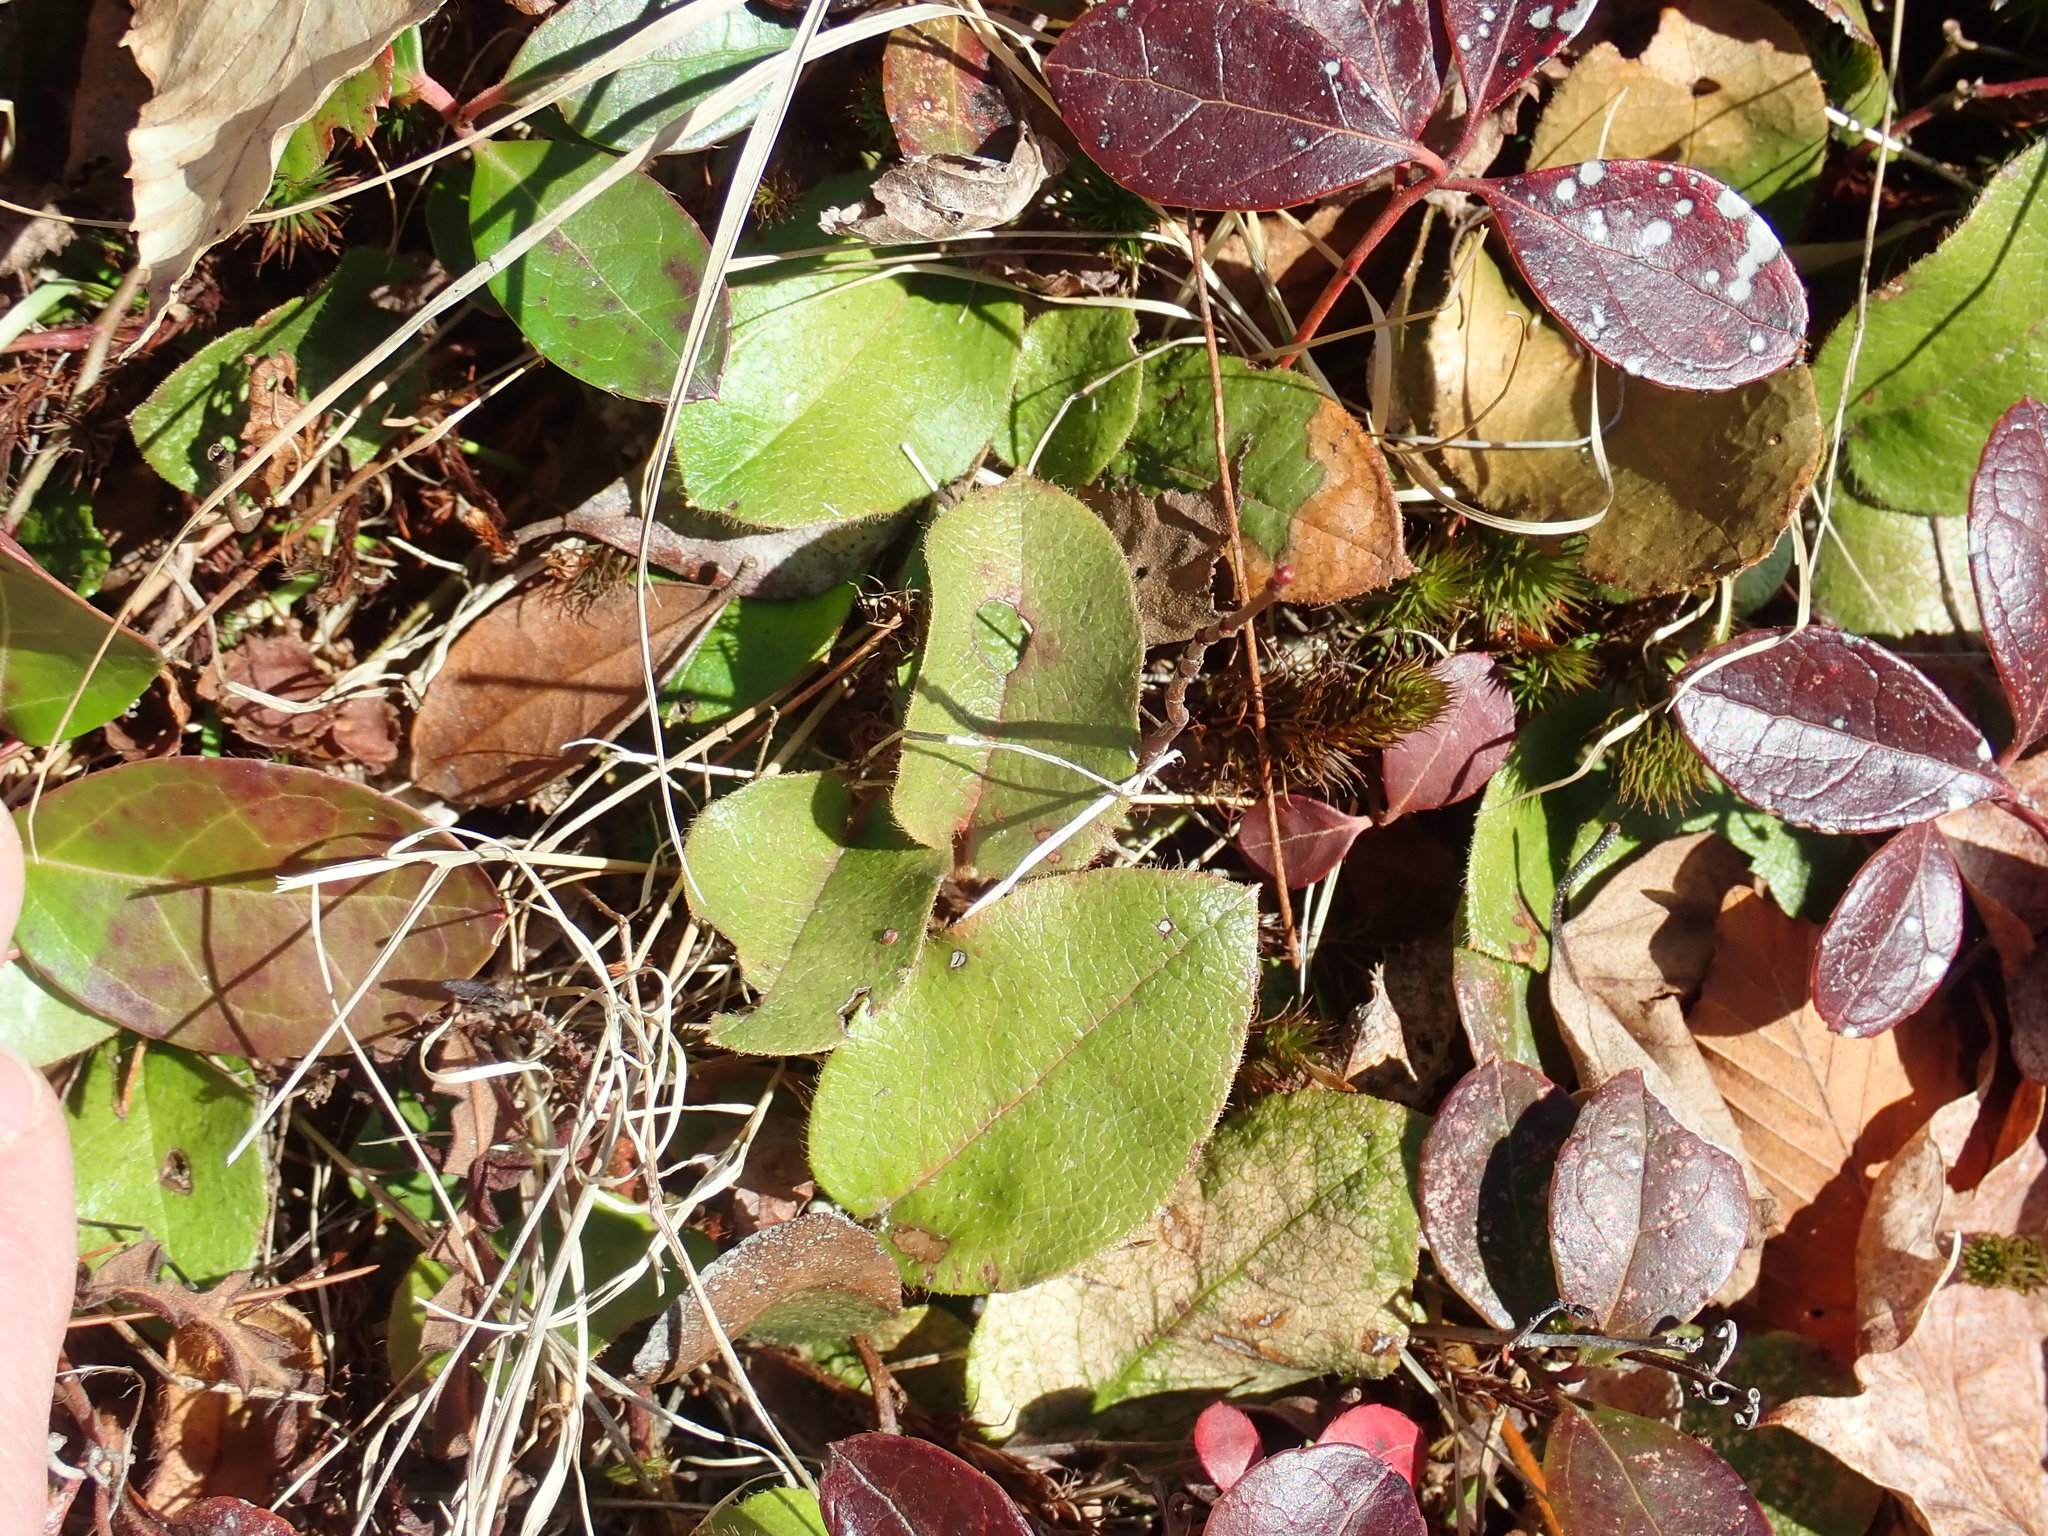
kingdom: Plantae
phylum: Tracheophyta
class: Magnoliopsida
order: Ericales
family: Ericaceae
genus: Epigaea
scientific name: Epigaea repens
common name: Gravelroot
